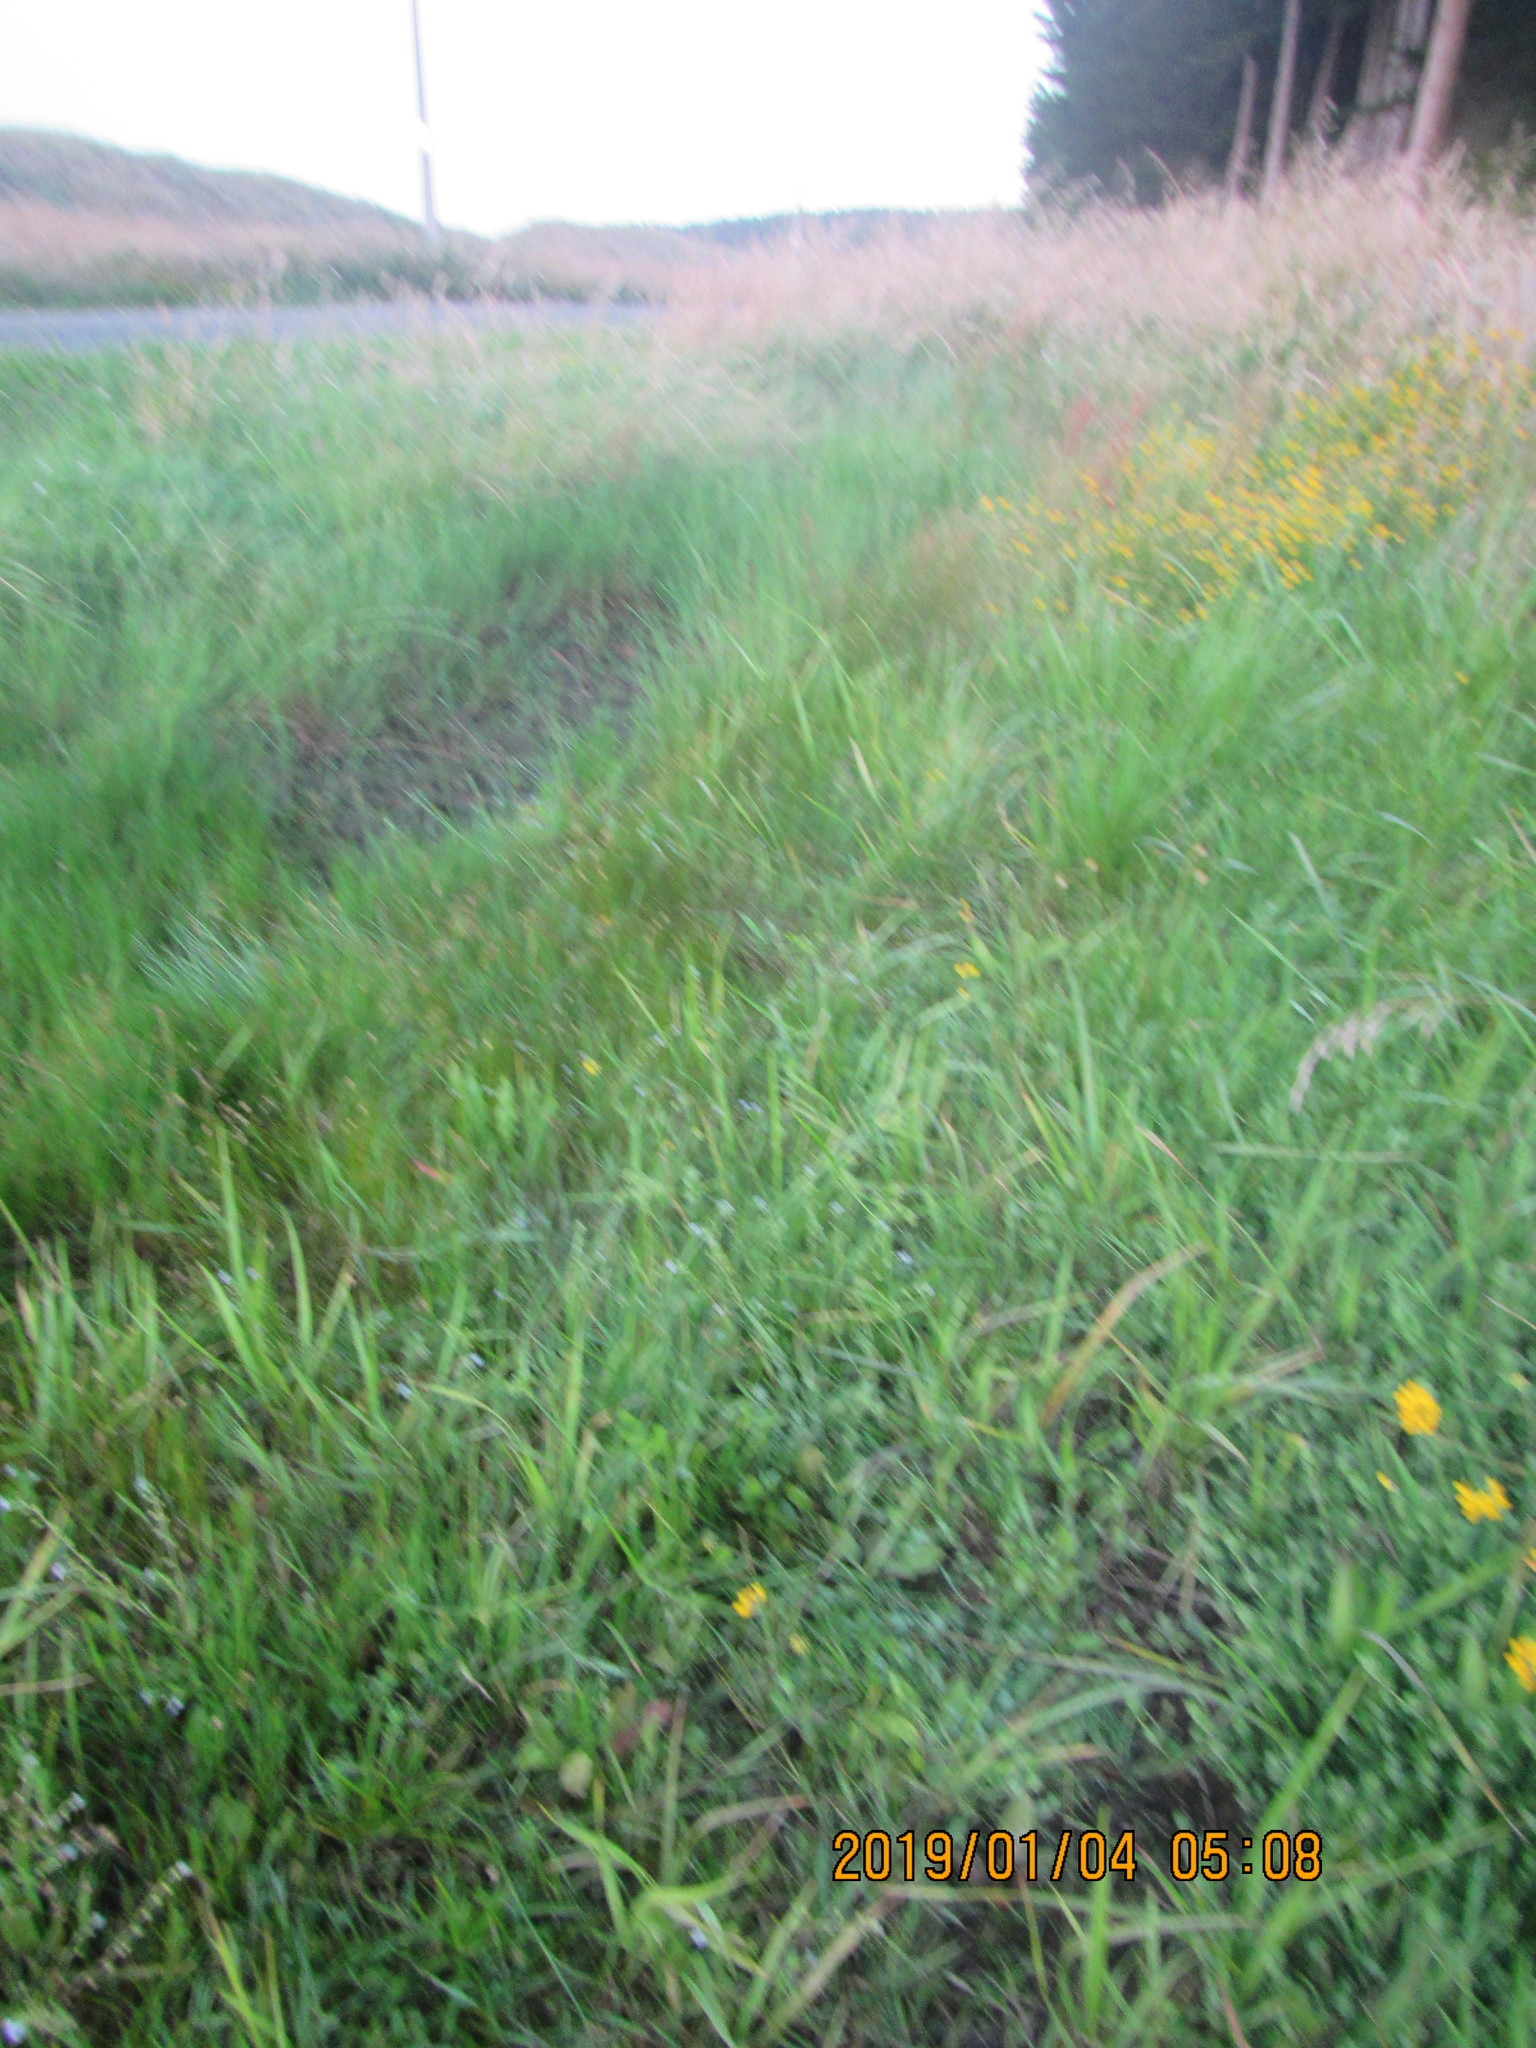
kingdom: Plantae
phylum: Tracheophyta
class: Liliopsida
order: Poales
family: Cyperaceae
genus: Cyperus
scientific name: Cyperus eragrostis
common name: Tall flatsedge
